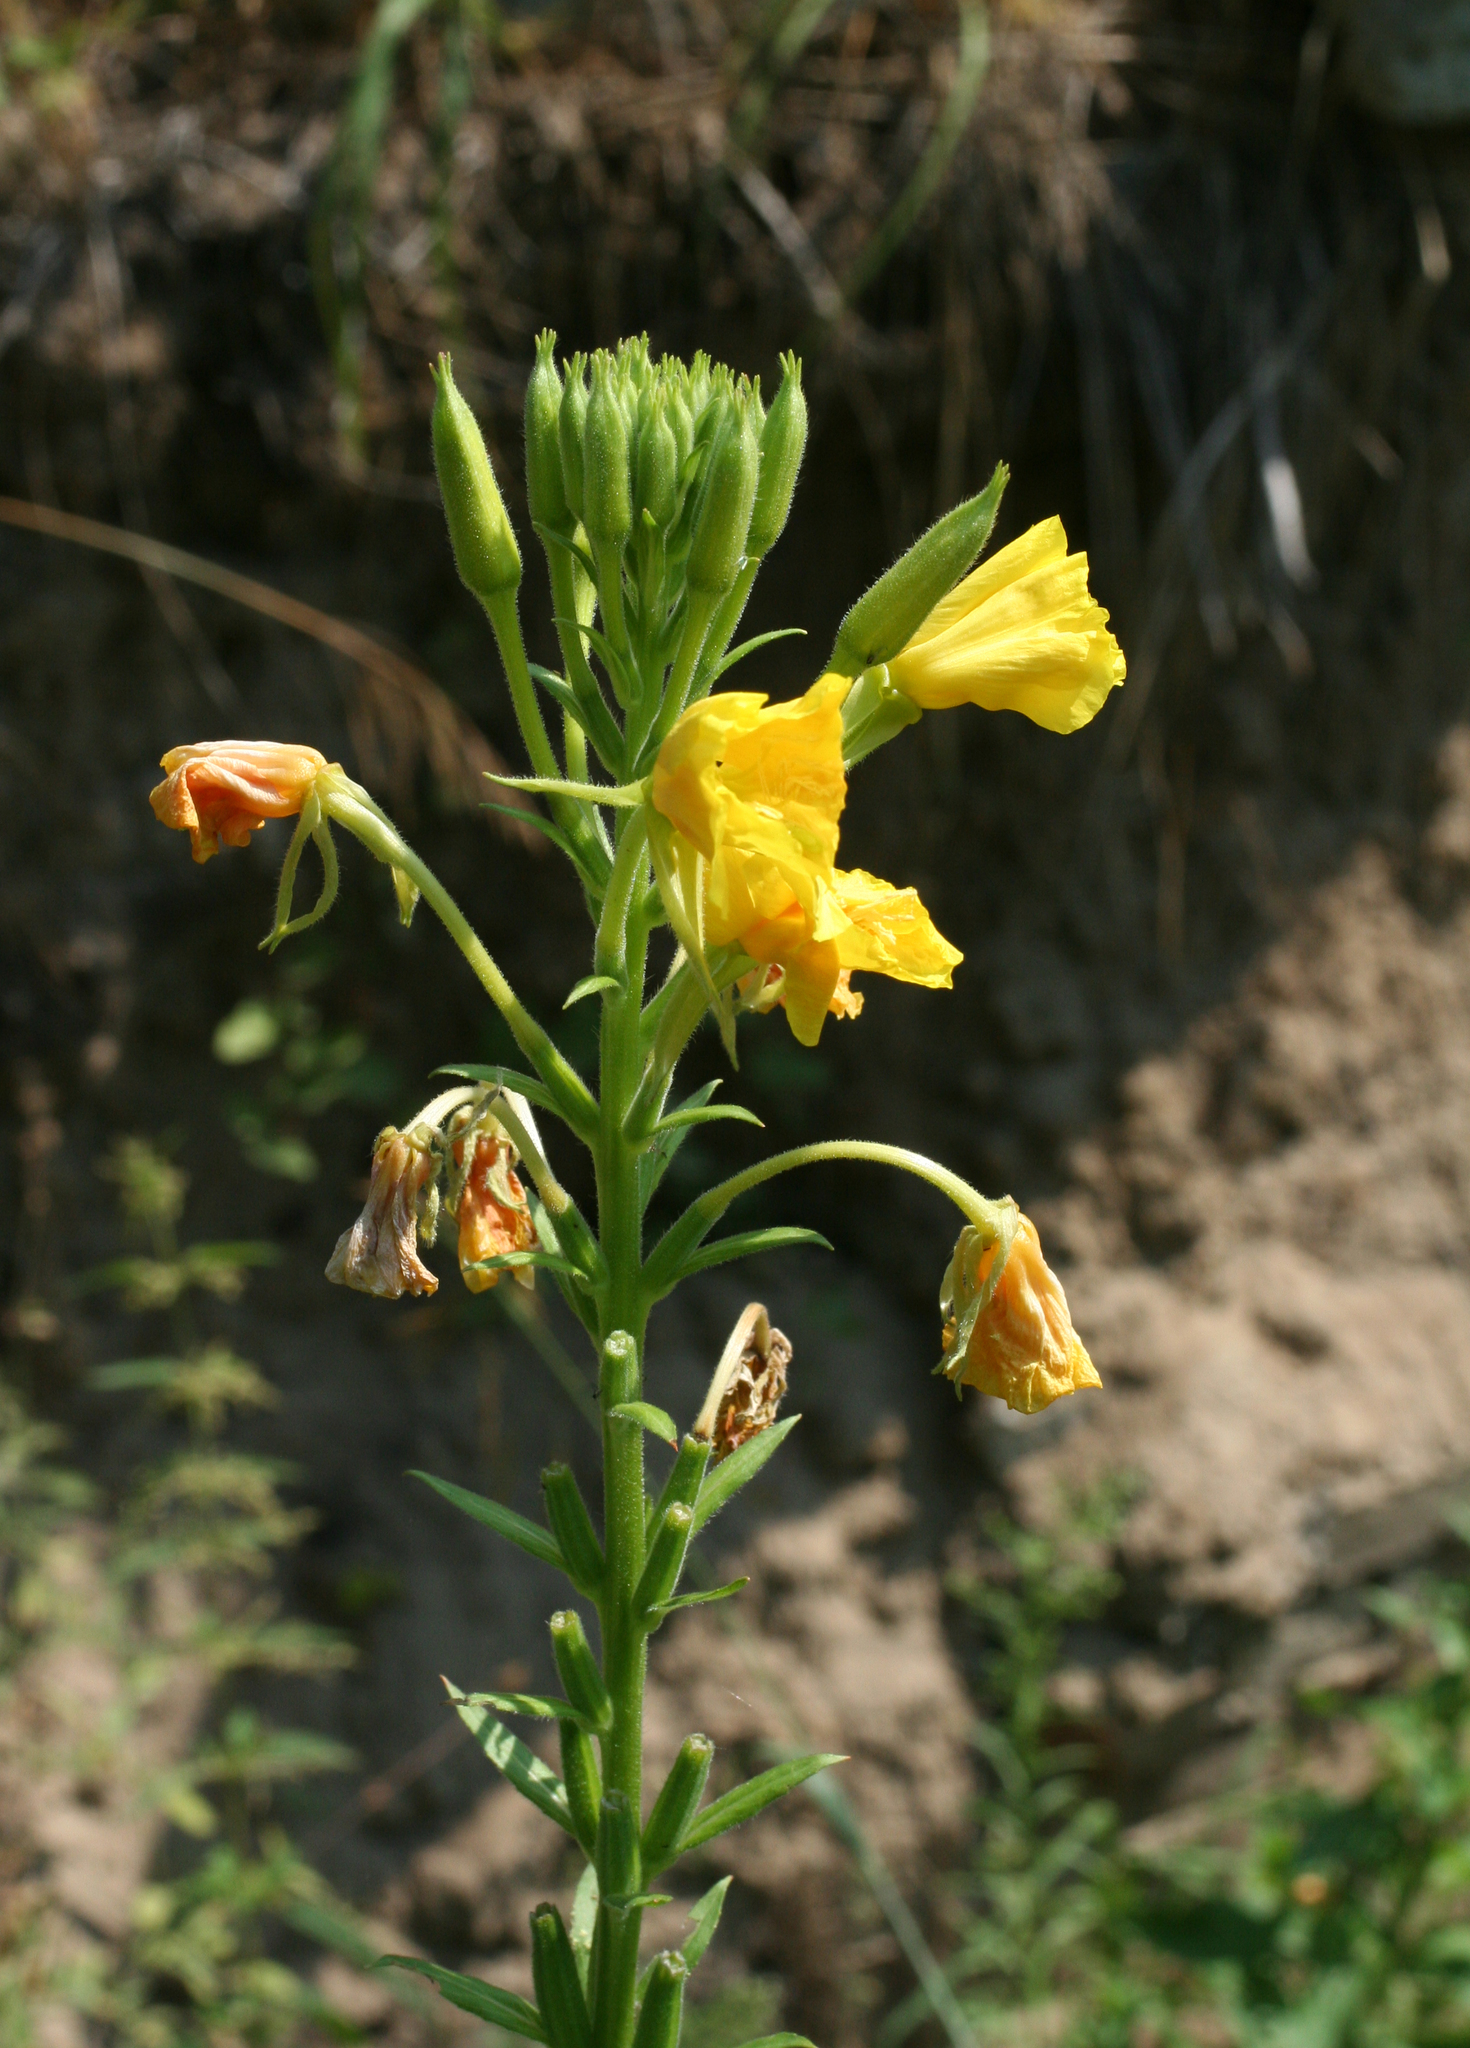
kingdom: Plantae
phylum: Tracheophyta
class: Magnoliopsida
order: Myrtales
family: Onagraceae
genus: Oenothera
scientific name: Oenothera biennis
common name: Common evening-primrose
